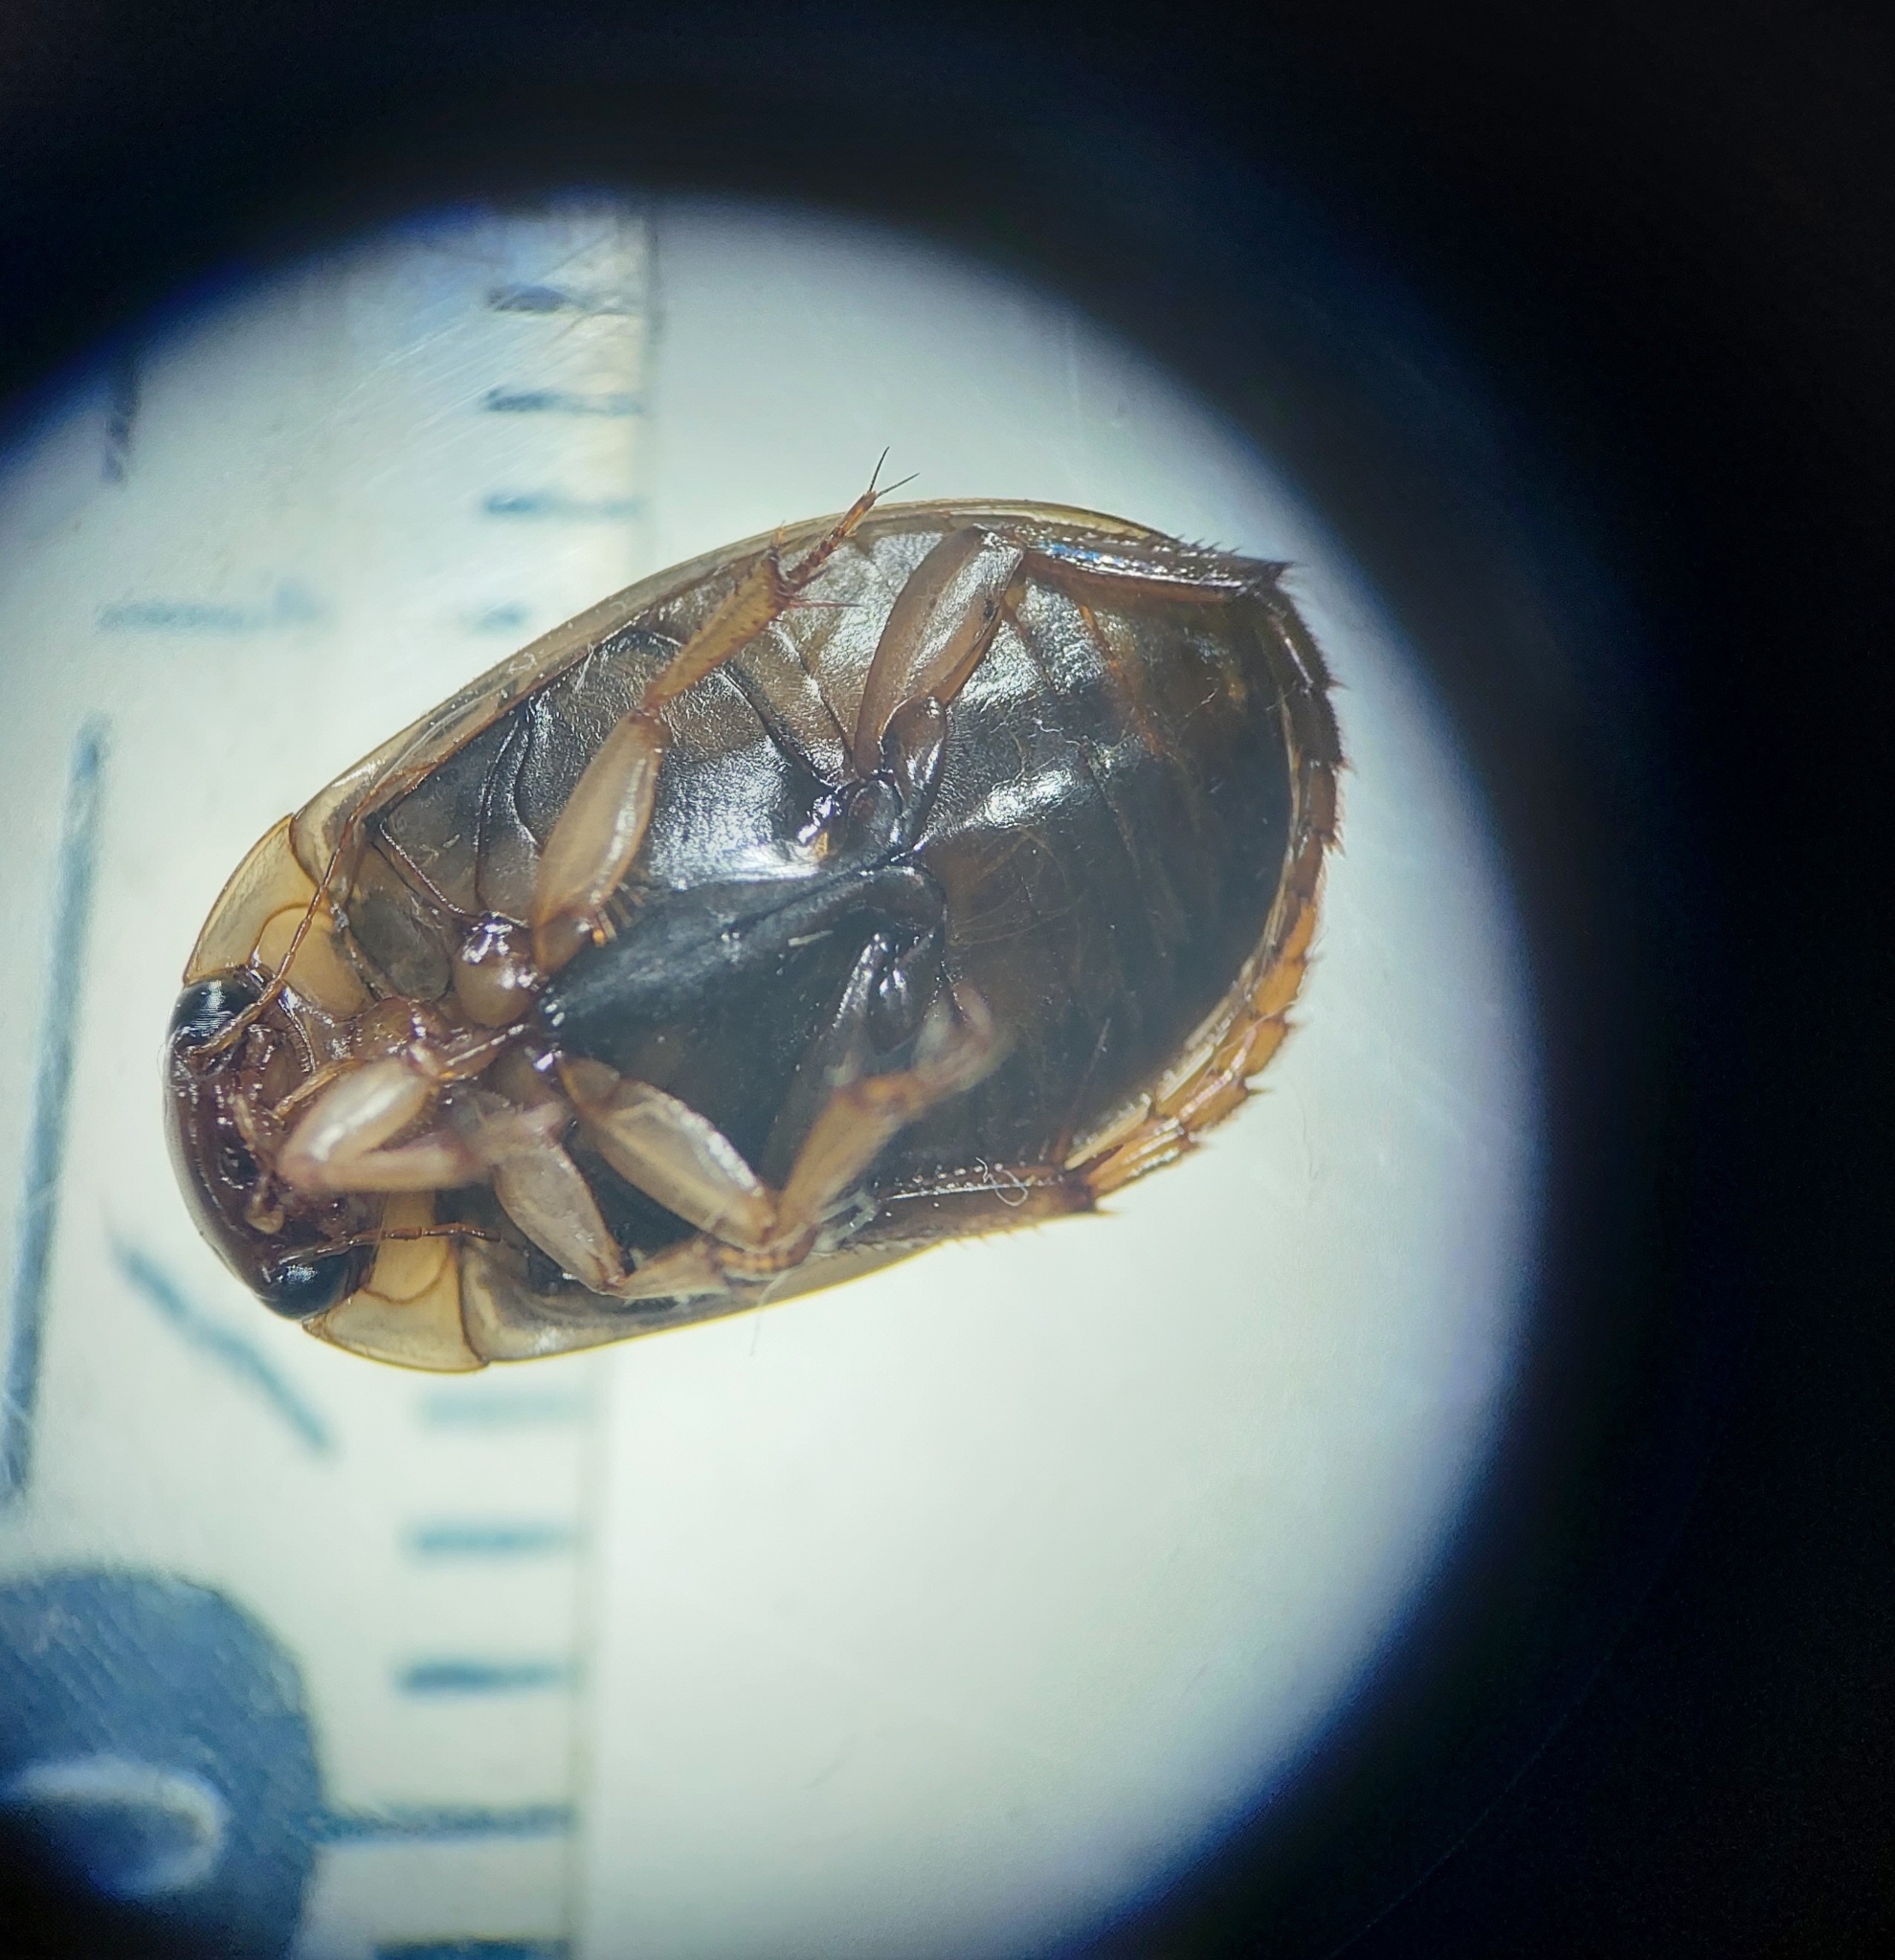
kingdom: Animalia
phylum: Arthropoda
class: Insecta
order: Coleoptera
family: Dytiscidae
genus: Rhantus
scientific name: Rhantus exsoletus
